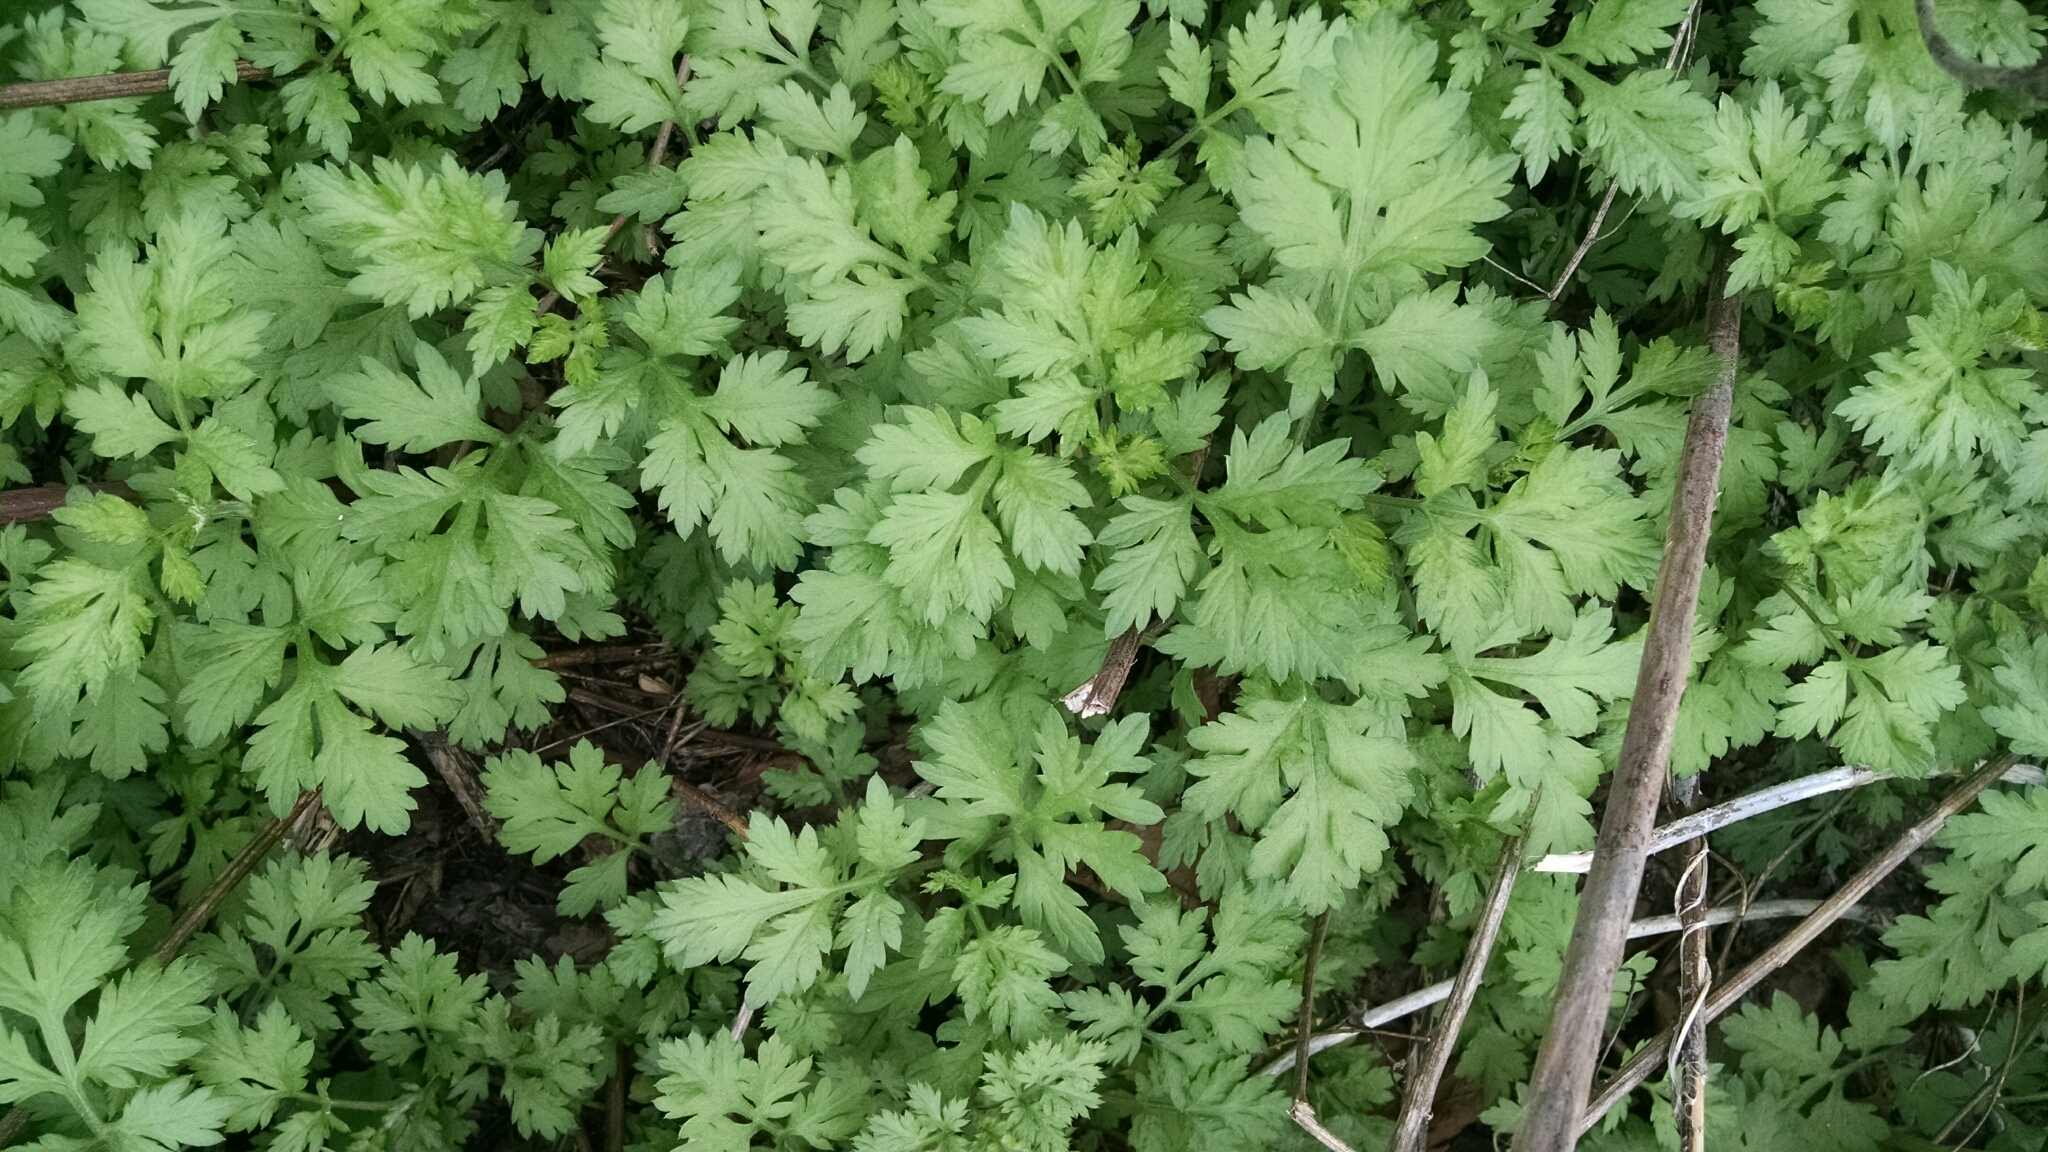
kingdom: Plantae
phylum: Tracheophyta
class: Magnoliopsida
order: Asterales
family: Asteraceae
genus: Artemisia
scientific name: Artemisia vulgaris
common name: Mugwort
